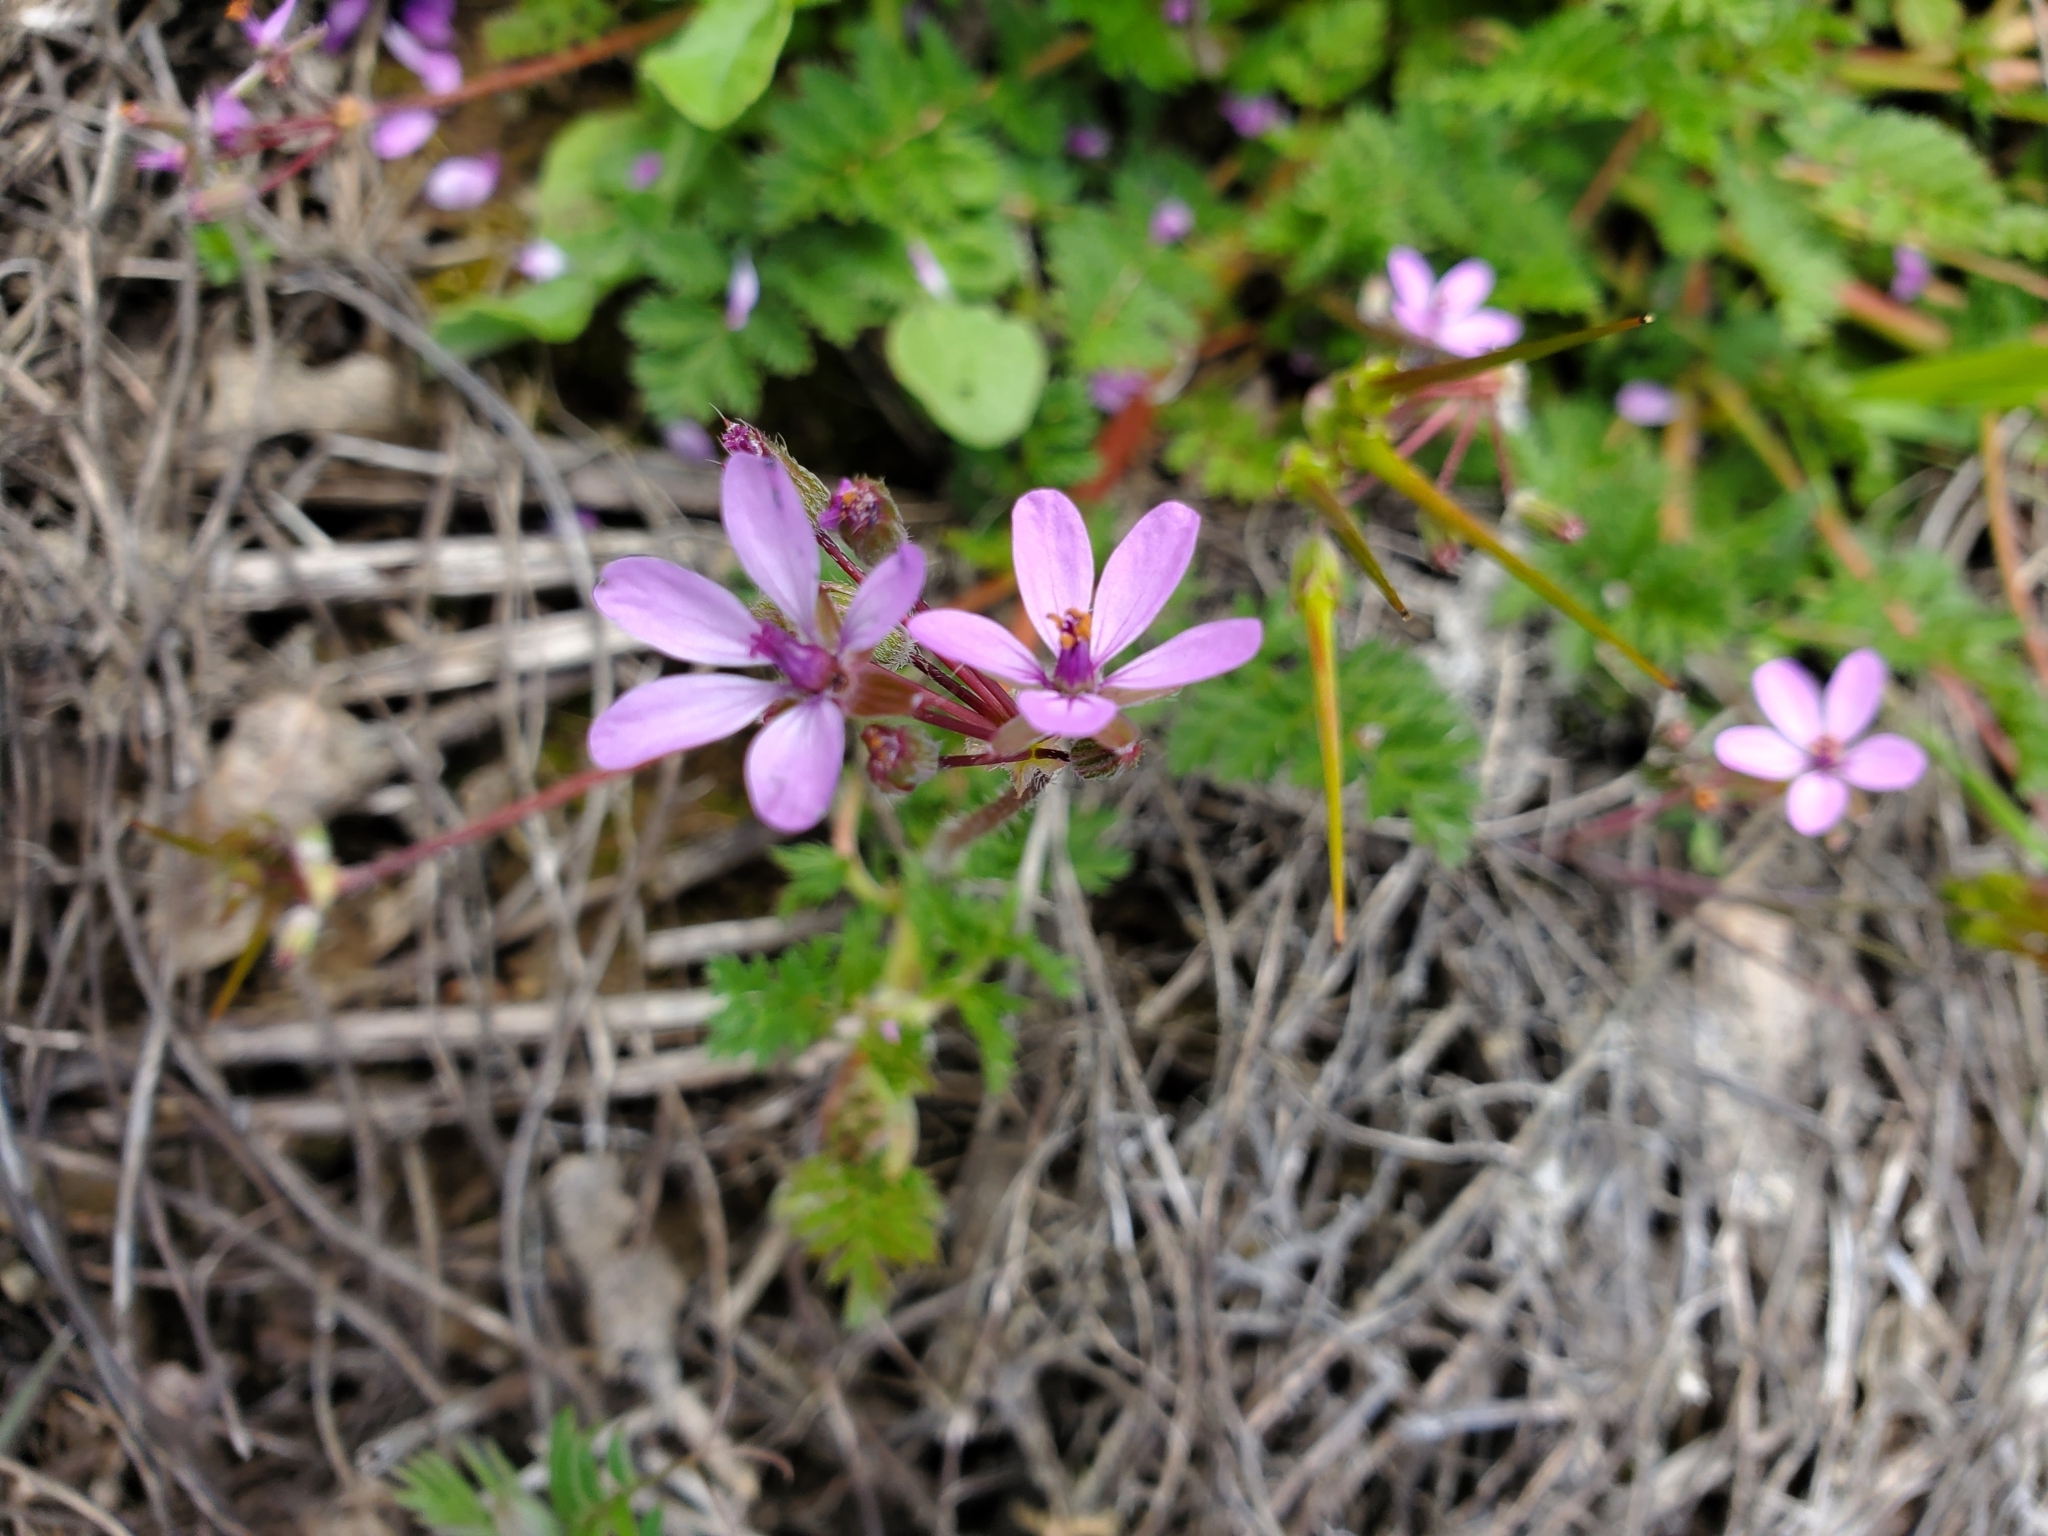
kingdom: Plantae
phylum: Tracheophyta
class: Magnoliopsida
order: Geraniales
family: Geraniaceae
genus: Erodium
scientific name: Erodium cicutarium
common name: Common stork's-bill
